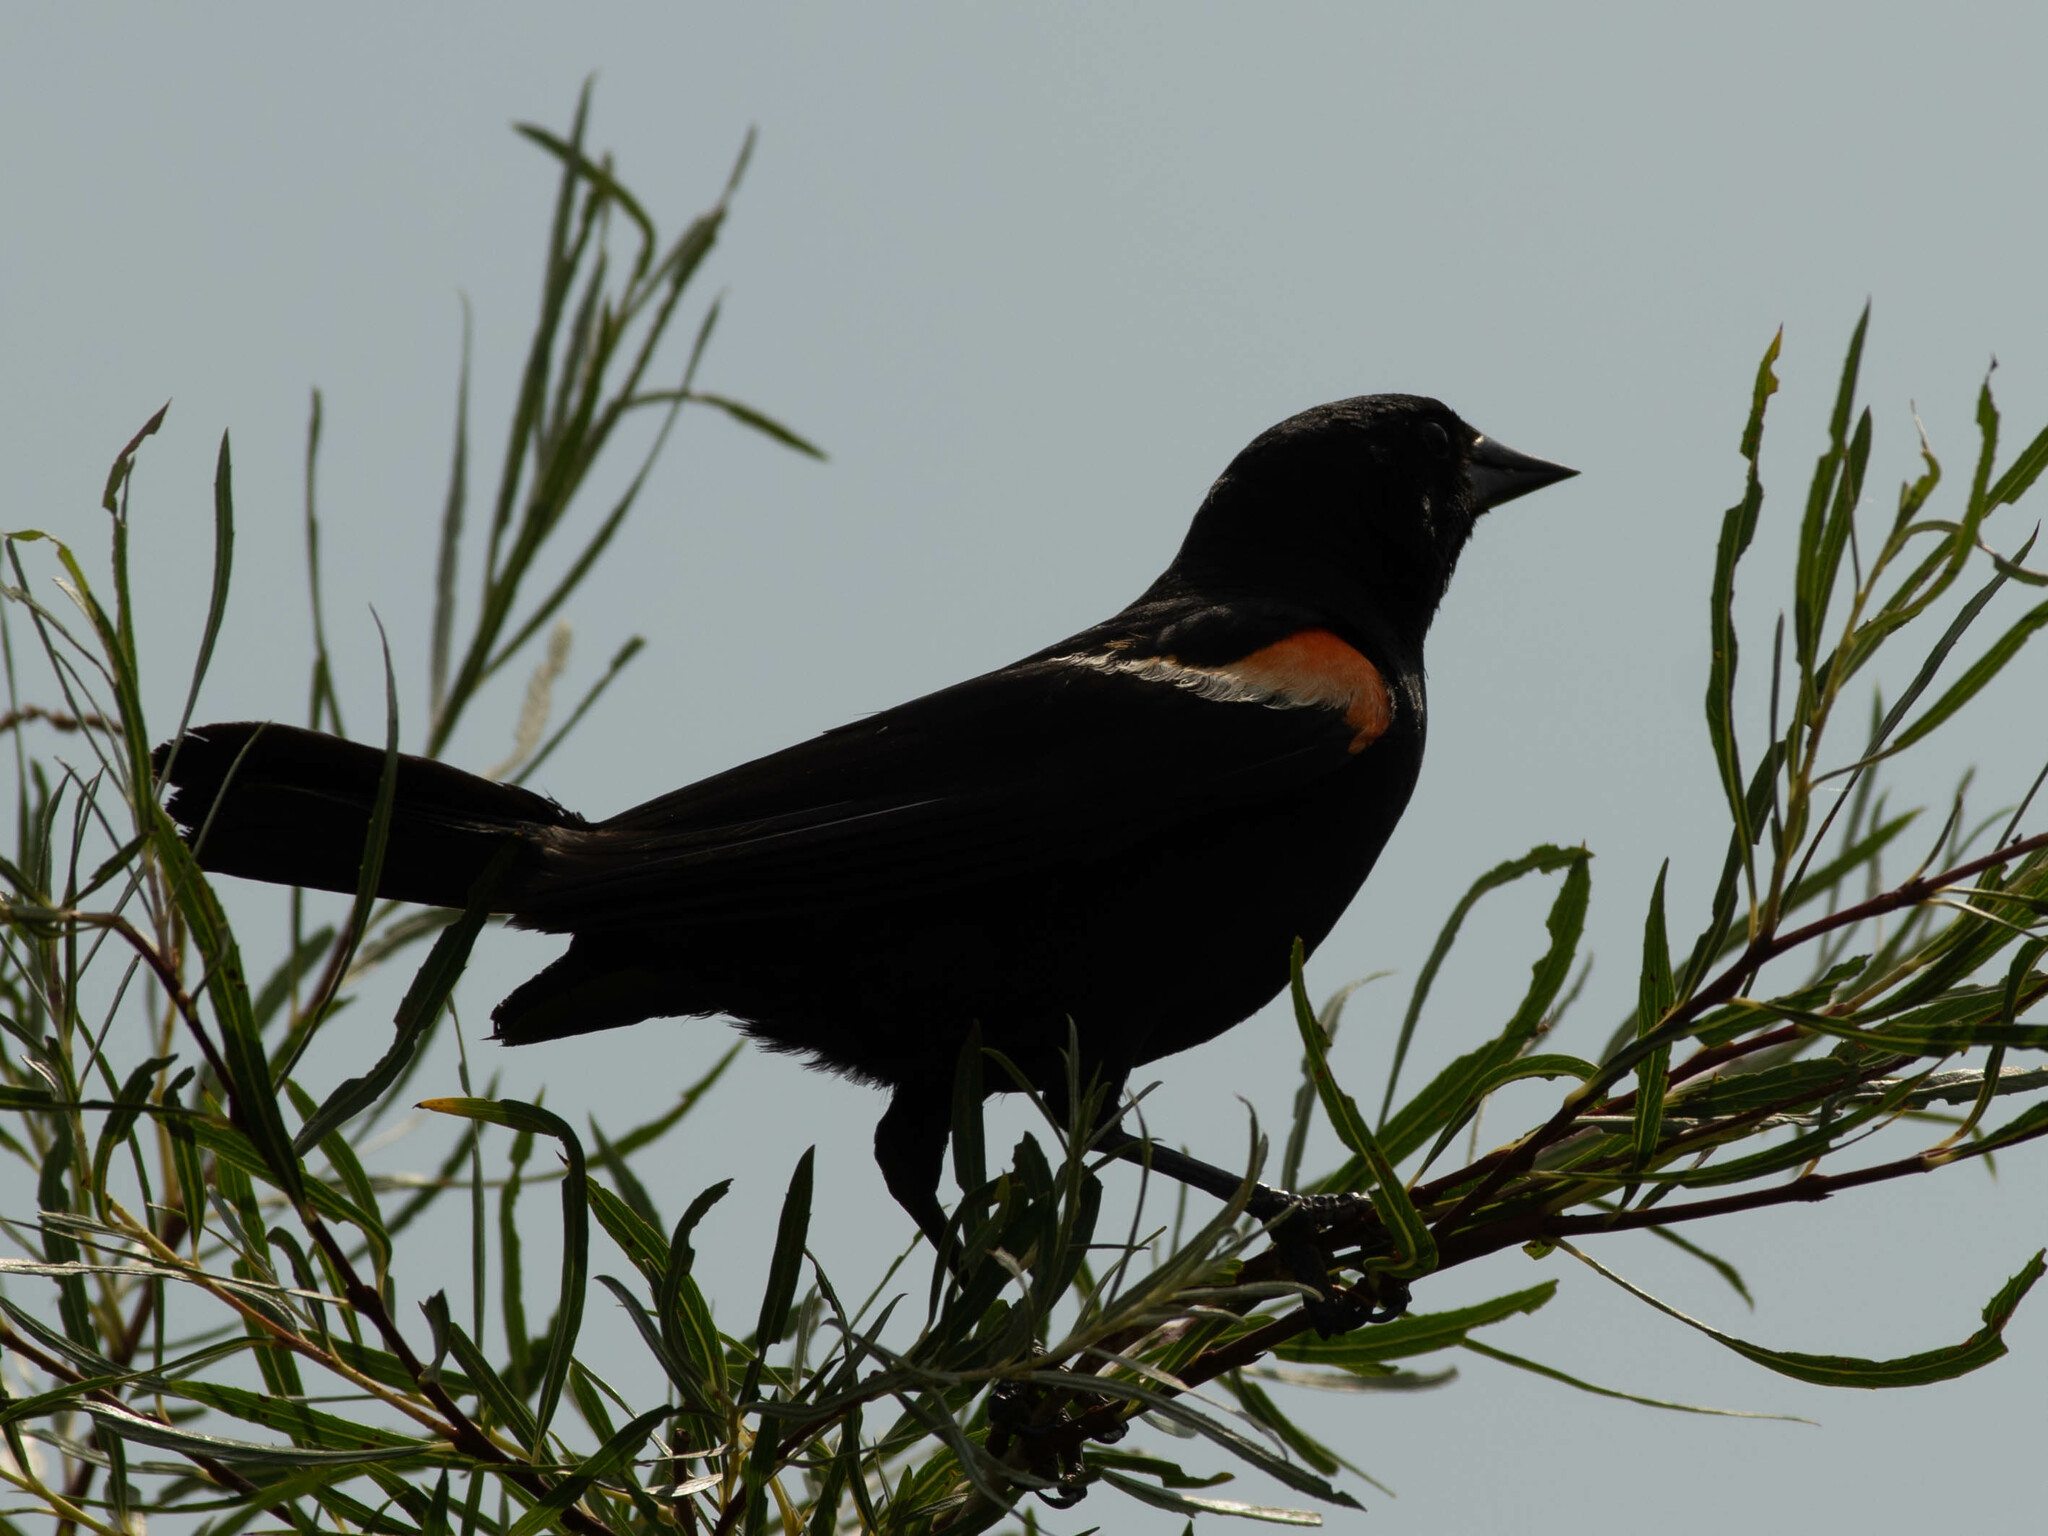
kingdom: Animalia
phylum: Chordata
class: Aves
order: Passeriformes
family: Icteridae
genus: Agelaius
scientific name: Agelaius phoeniceus
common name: Red-winged blackbird
